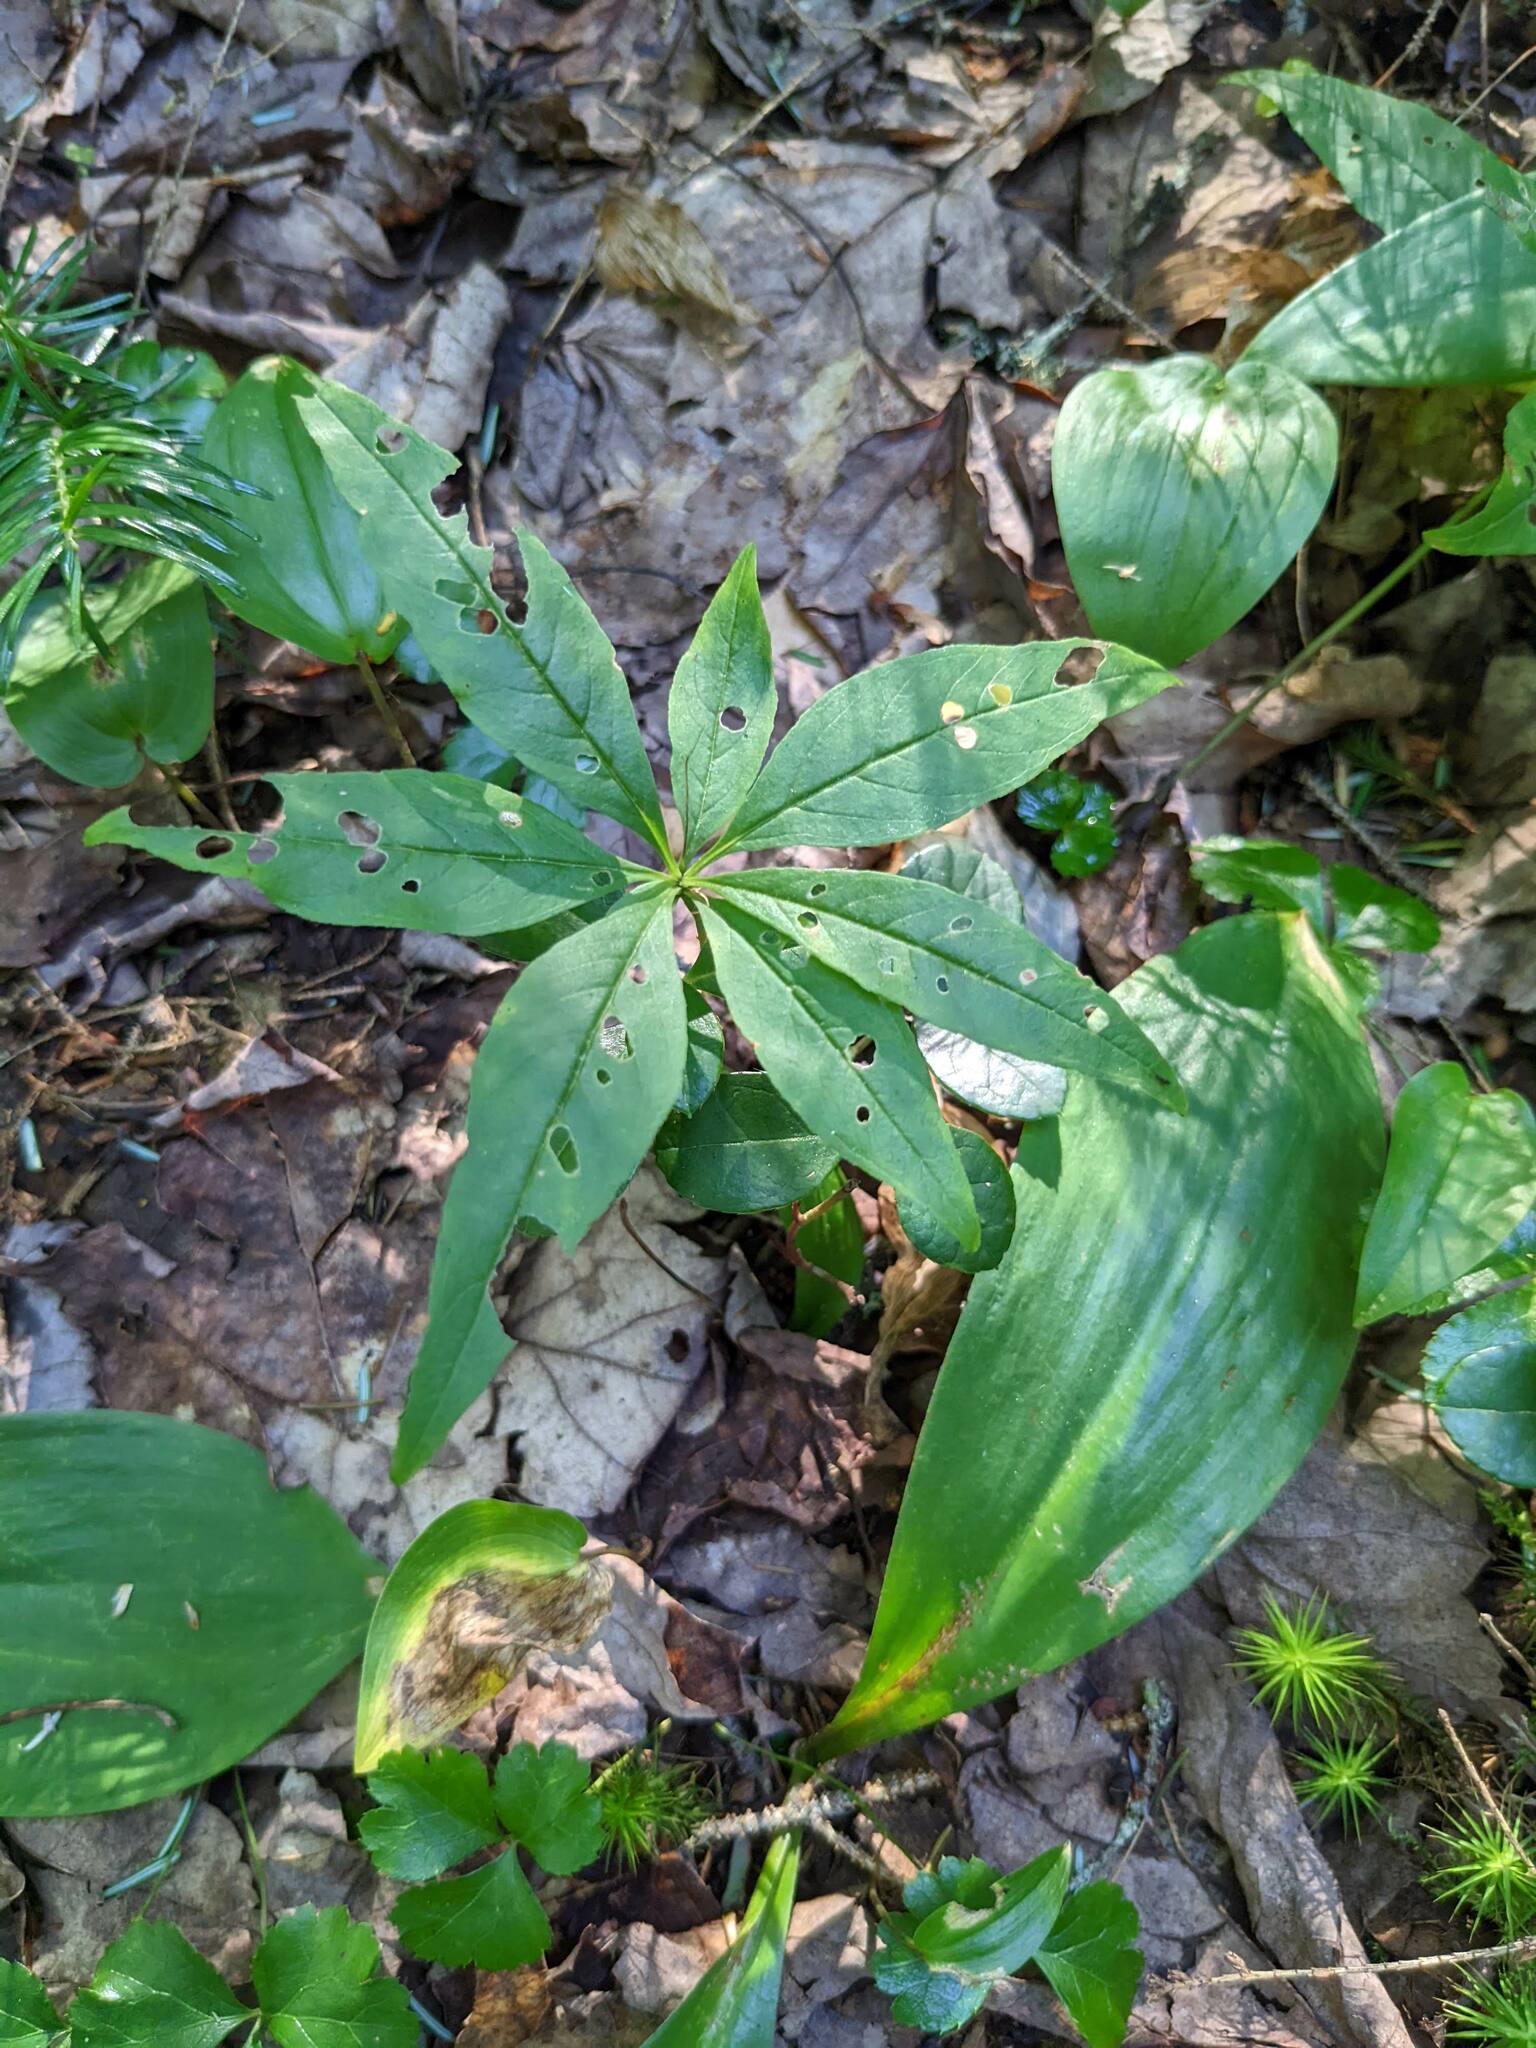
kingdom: Plantae
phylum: Tracheophyta
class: Magnoliopsida
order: Ericales
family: Primulaceae
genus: Lysimachia
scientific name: Lysimachia borealis
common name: American starflower
